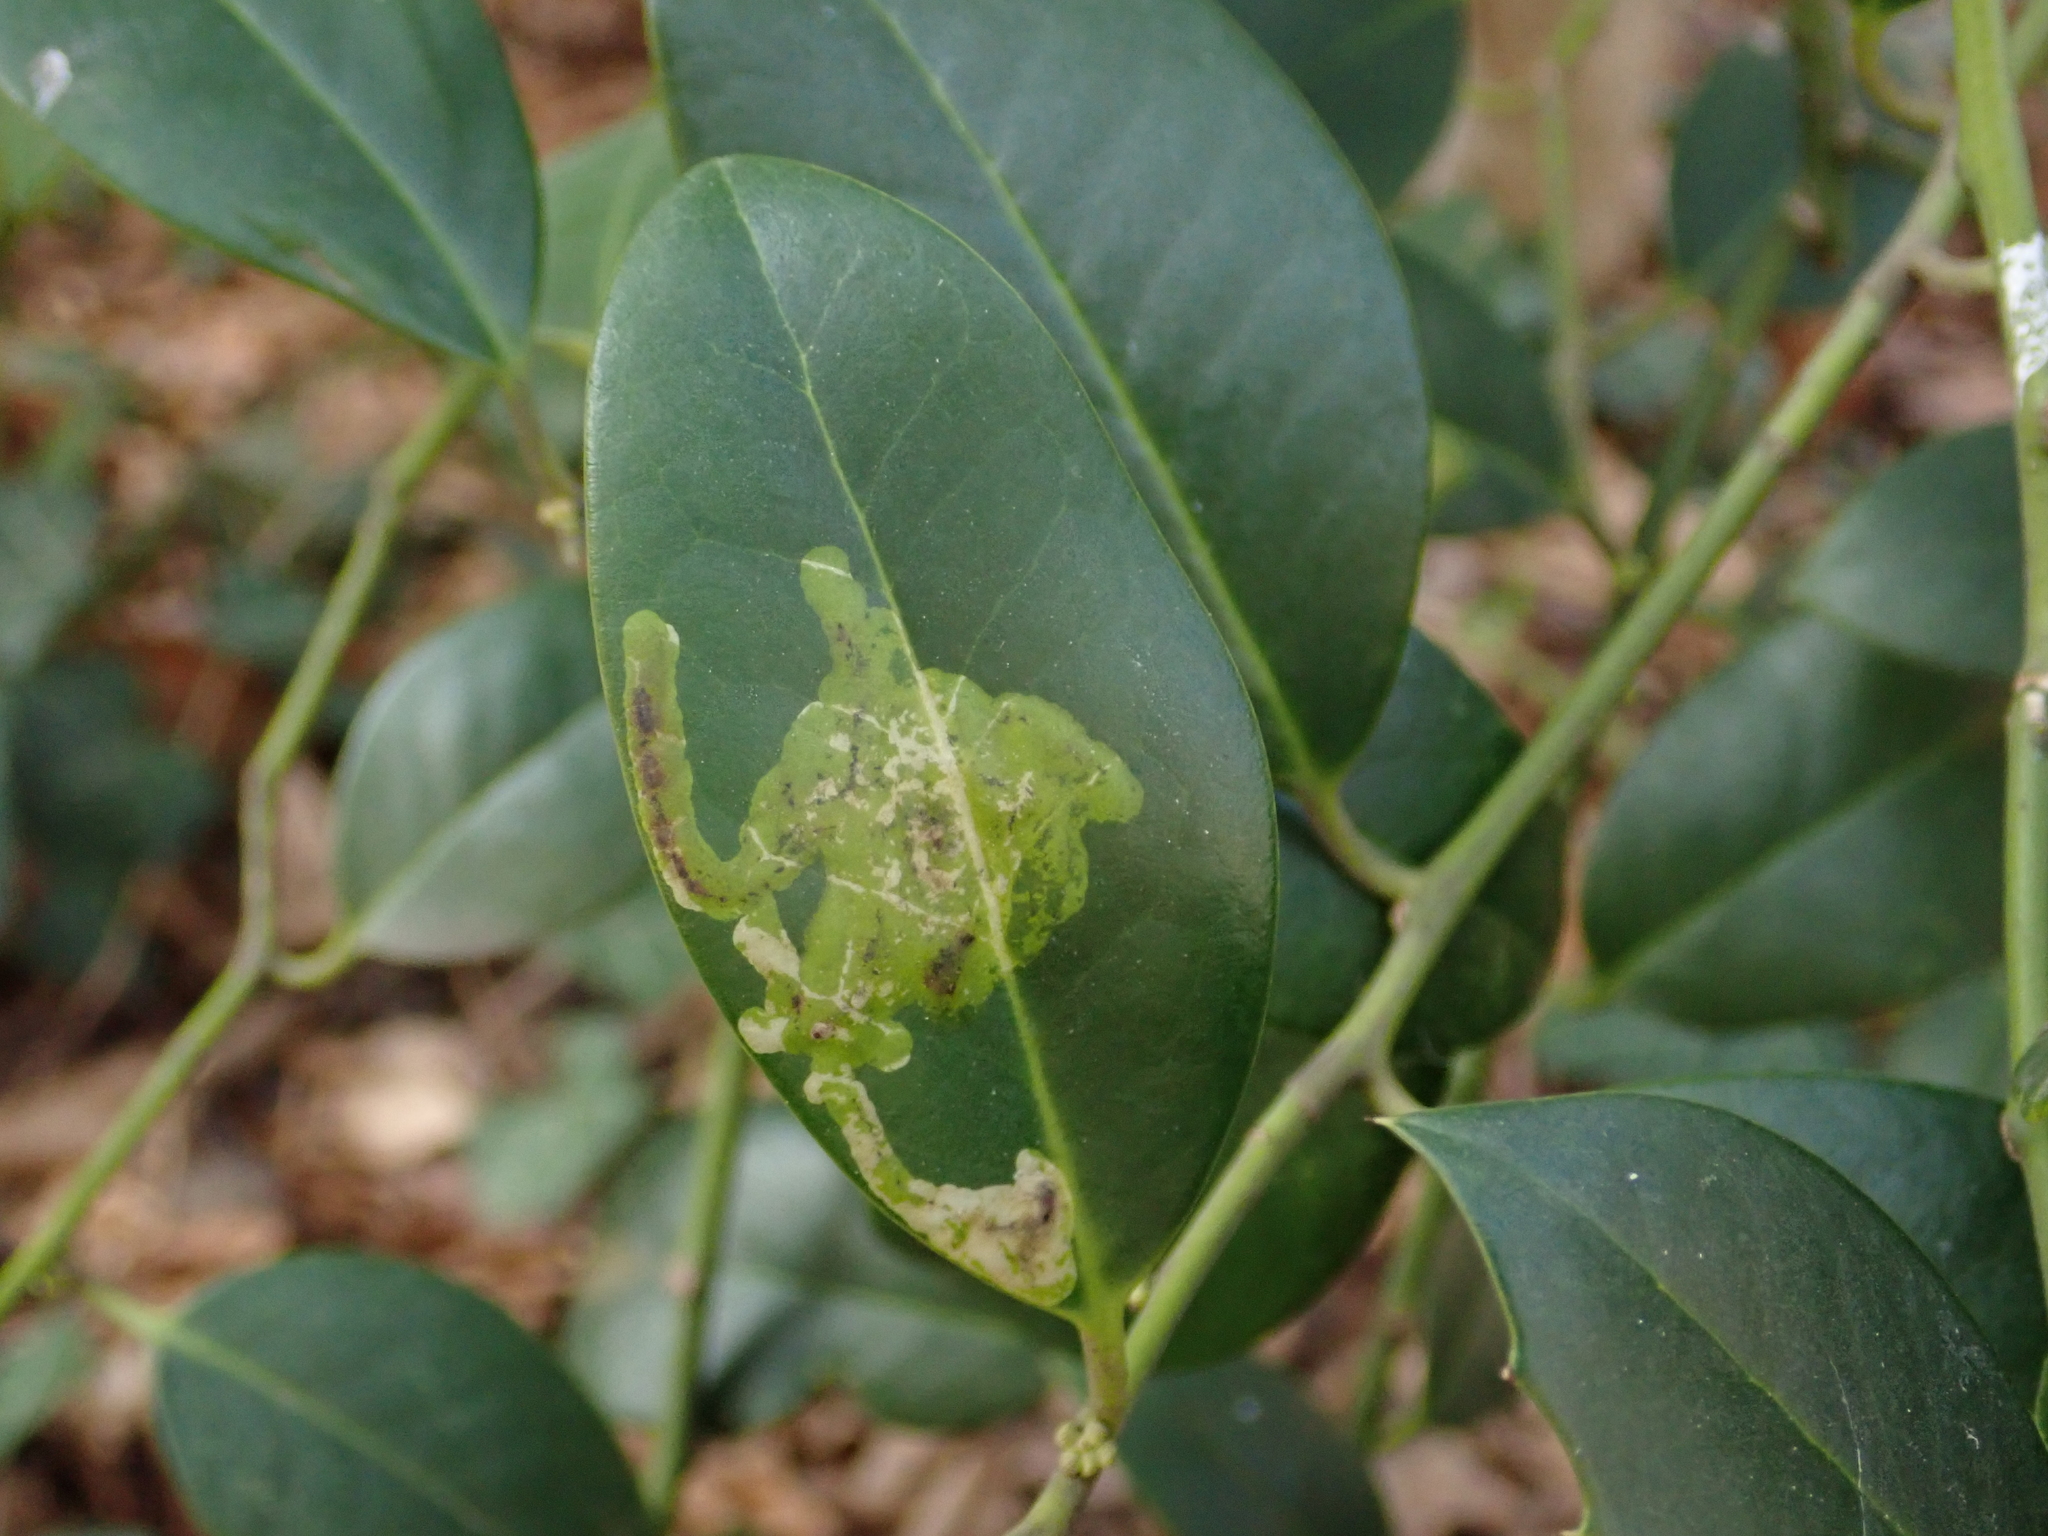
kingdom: Animalia
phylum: Arthropoda
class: Insecta
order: Diptera
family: Agromyzidae
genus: Phytomyza
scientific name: Phytomyza ilicis
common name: Holly leafminer
